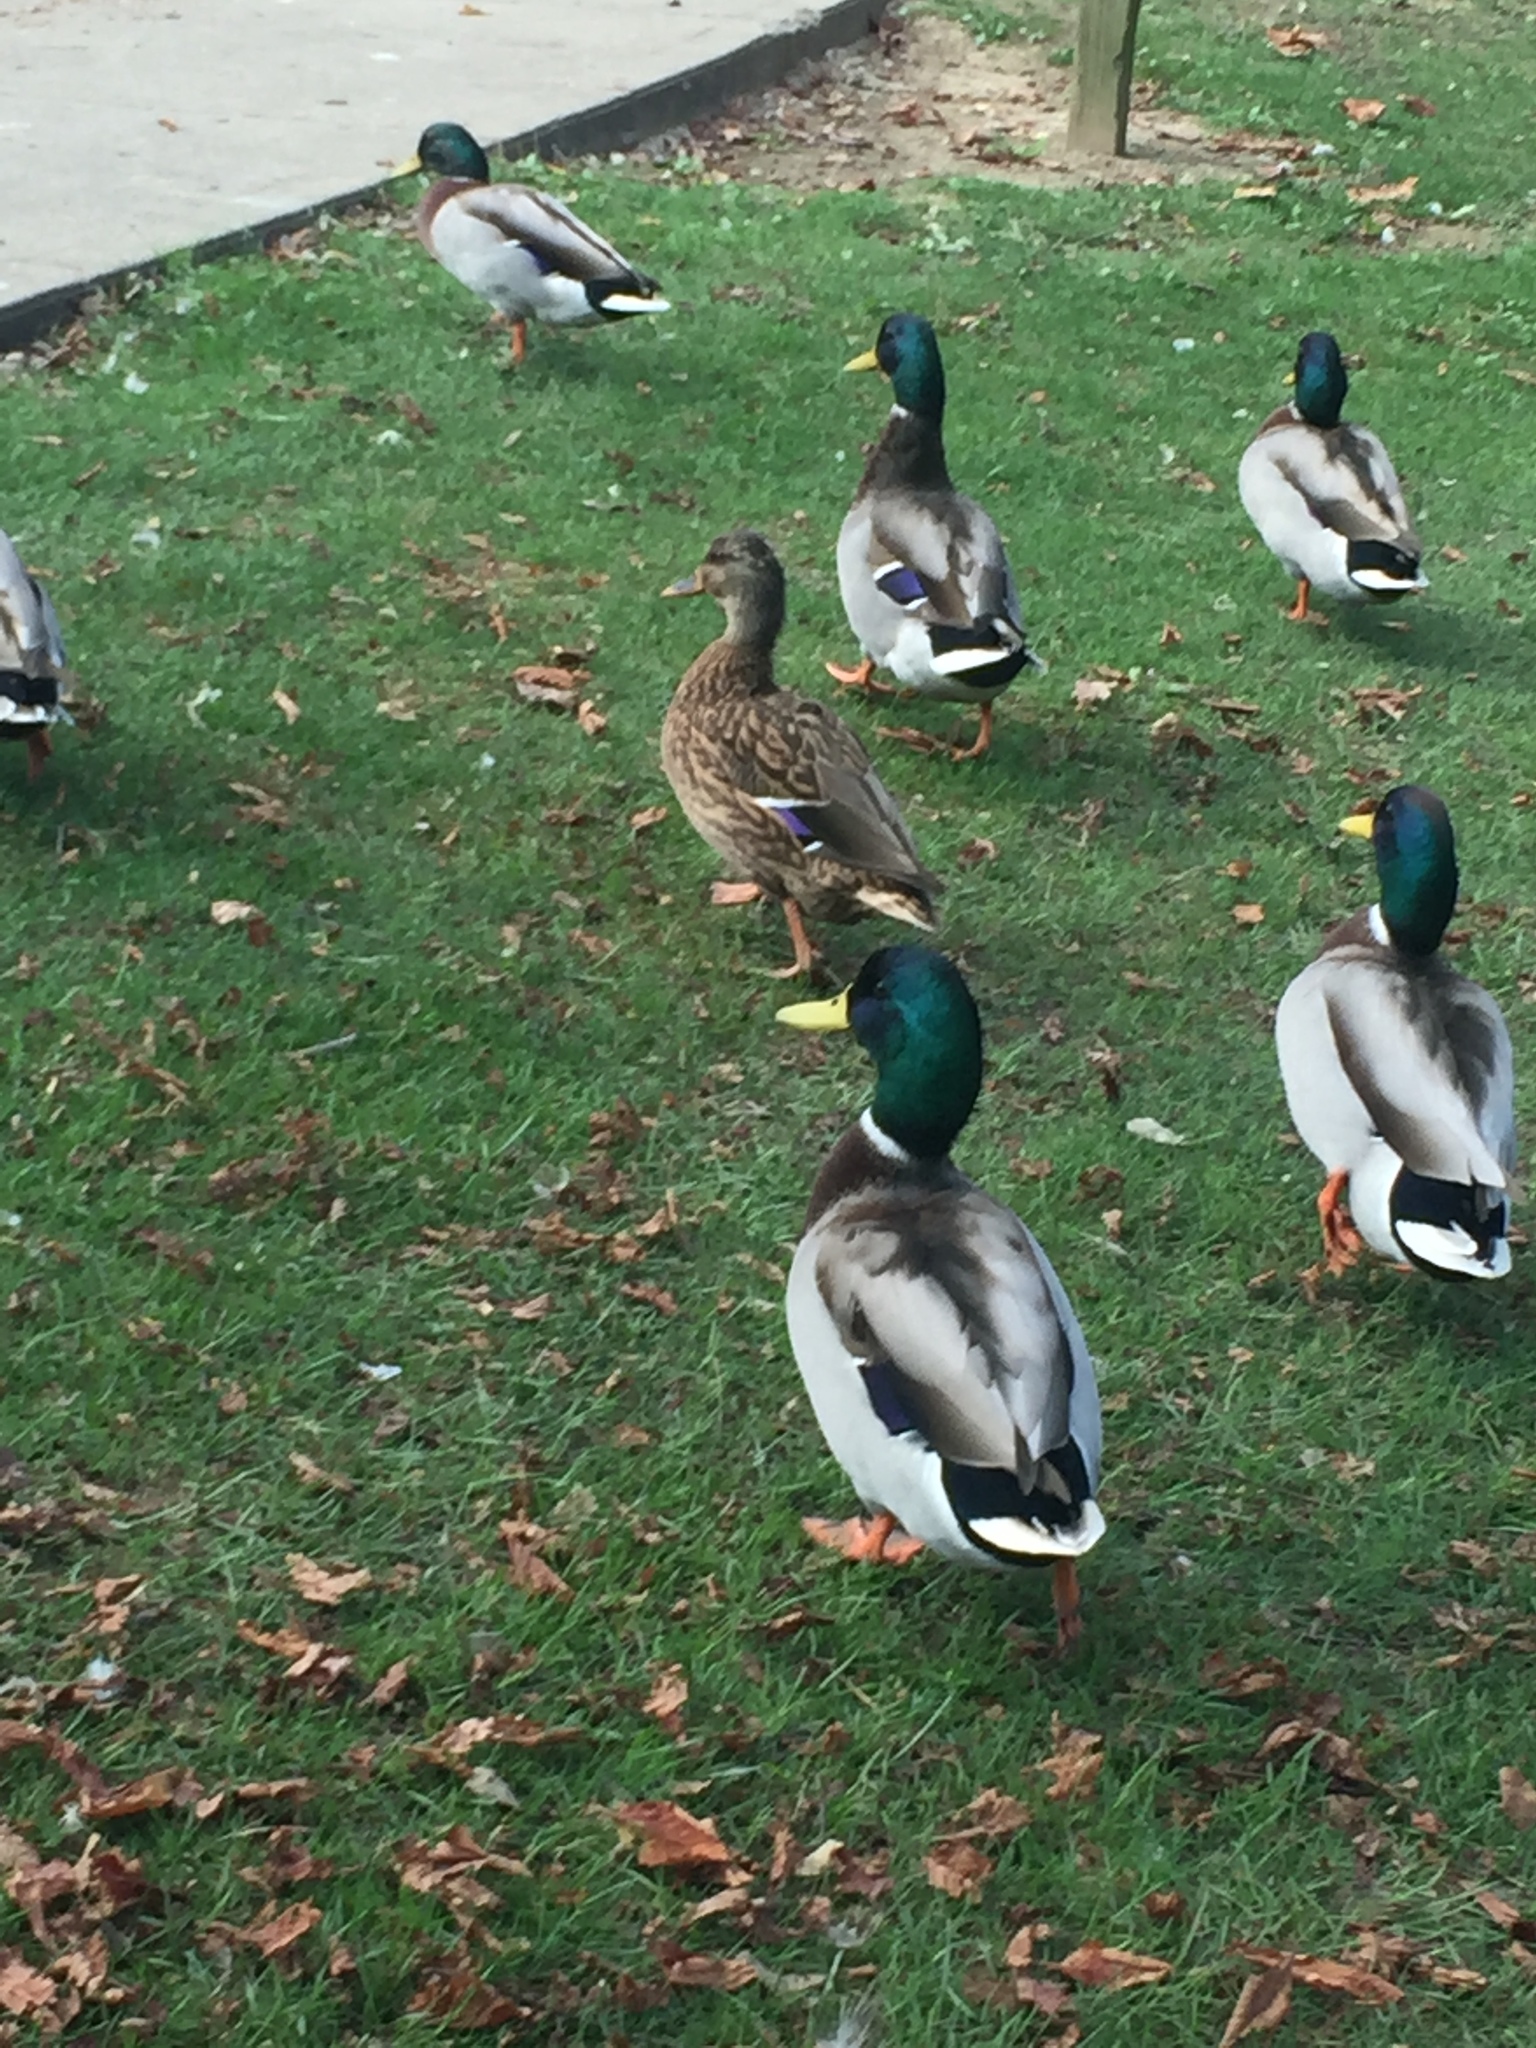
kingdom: Animalia
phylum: Chordata
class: Aves
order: Anseriformes
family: Anatidae
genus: Anas
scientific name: Anas platyrhynchos
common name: Mallard
